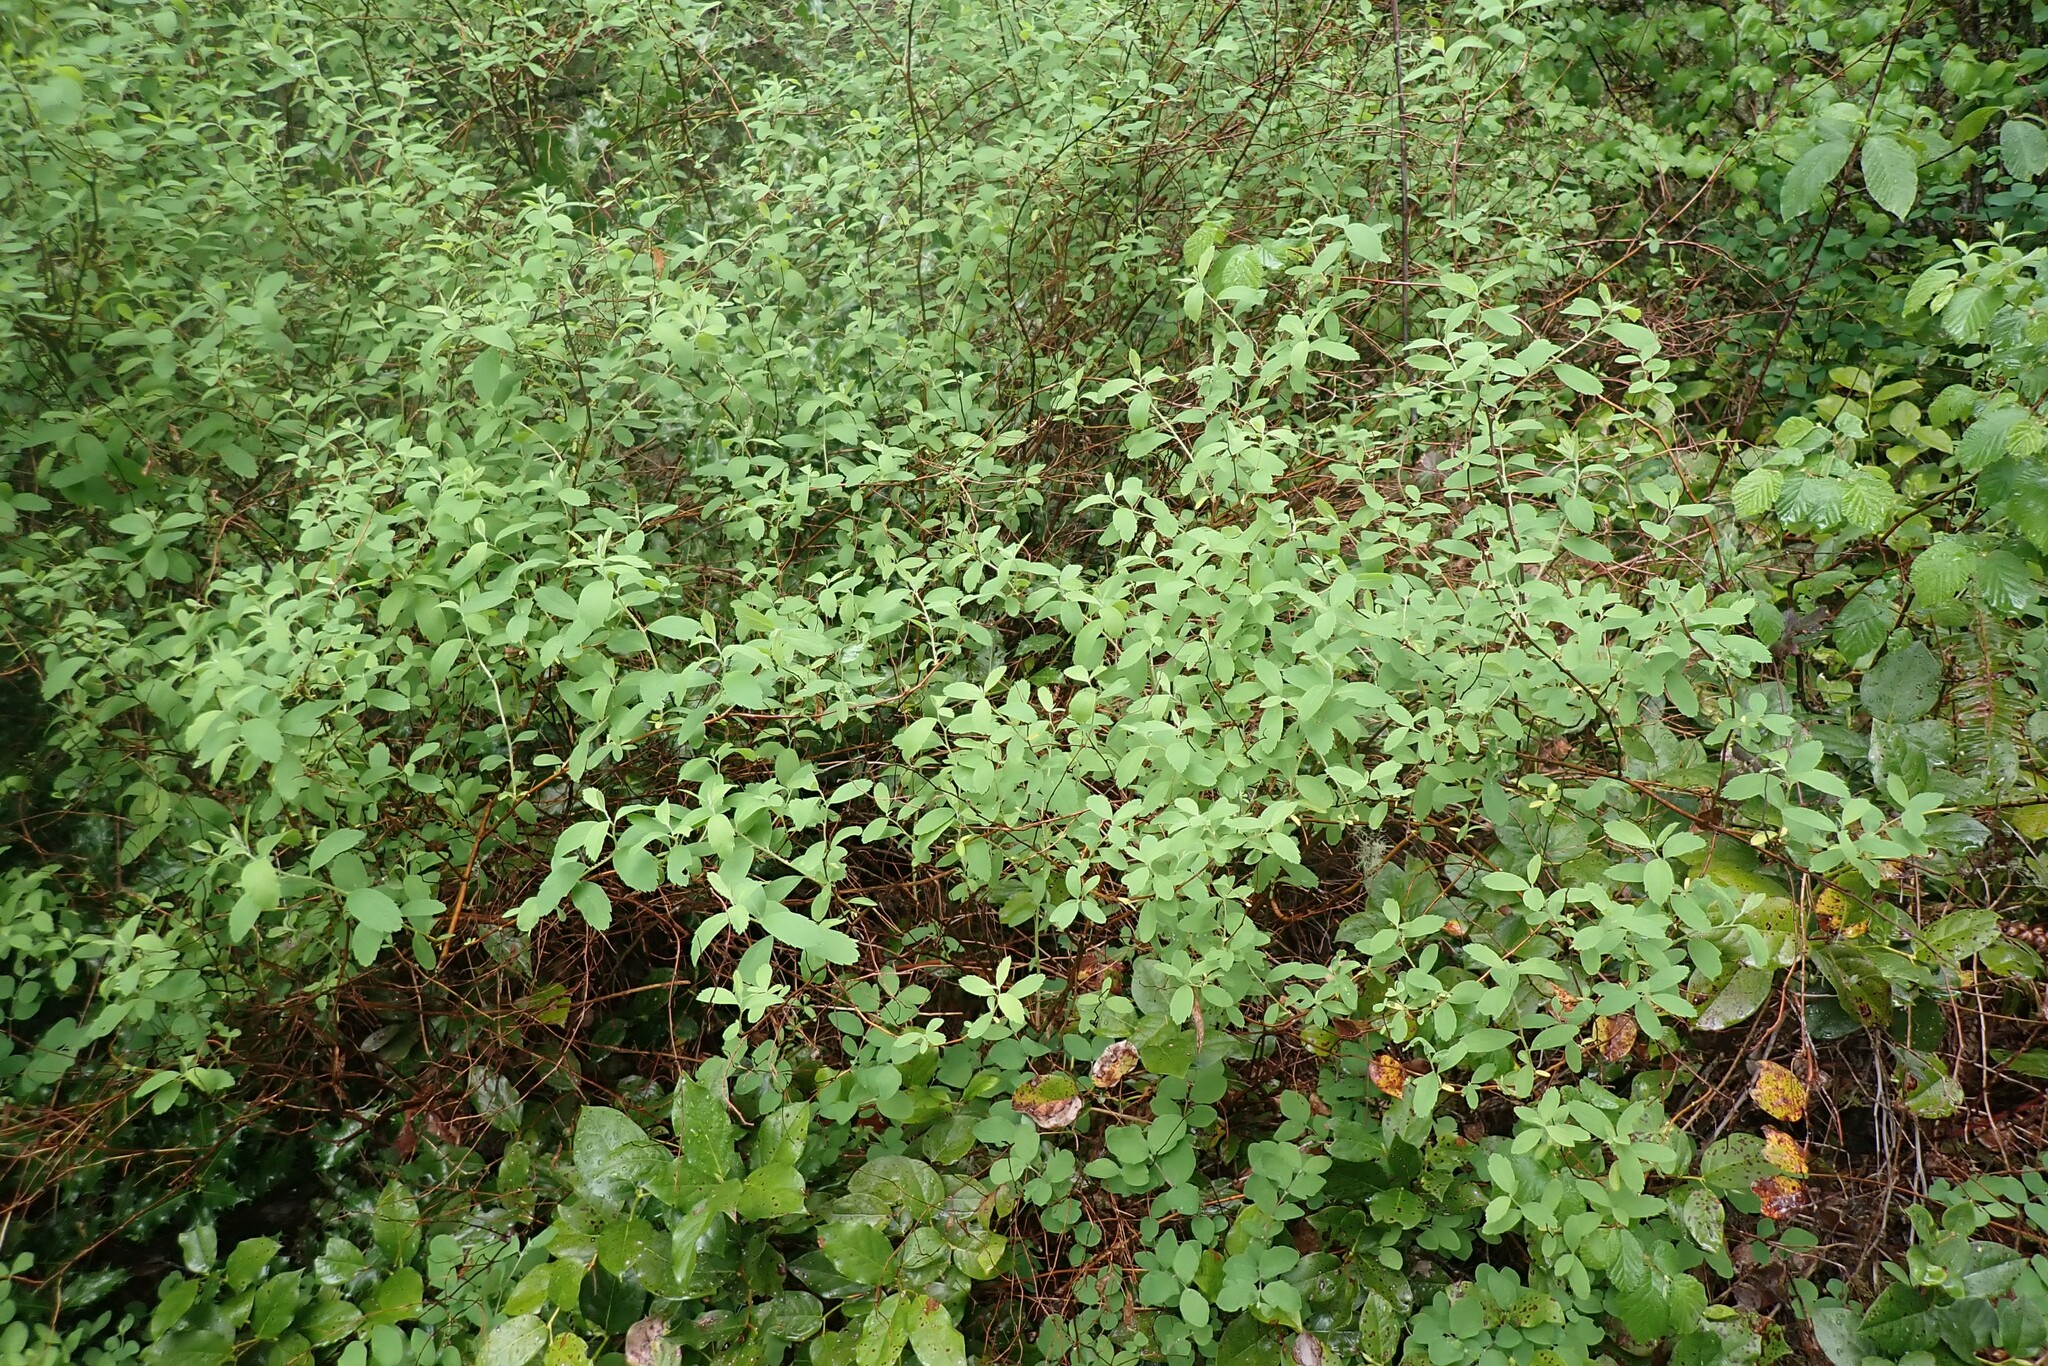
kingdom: Plantae
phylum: Tracheophyta
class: Magnoliopsida
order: Rosales
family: Rosaceae
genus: Spiraea
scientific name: Spiraea douglasii
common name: Steeplebush
